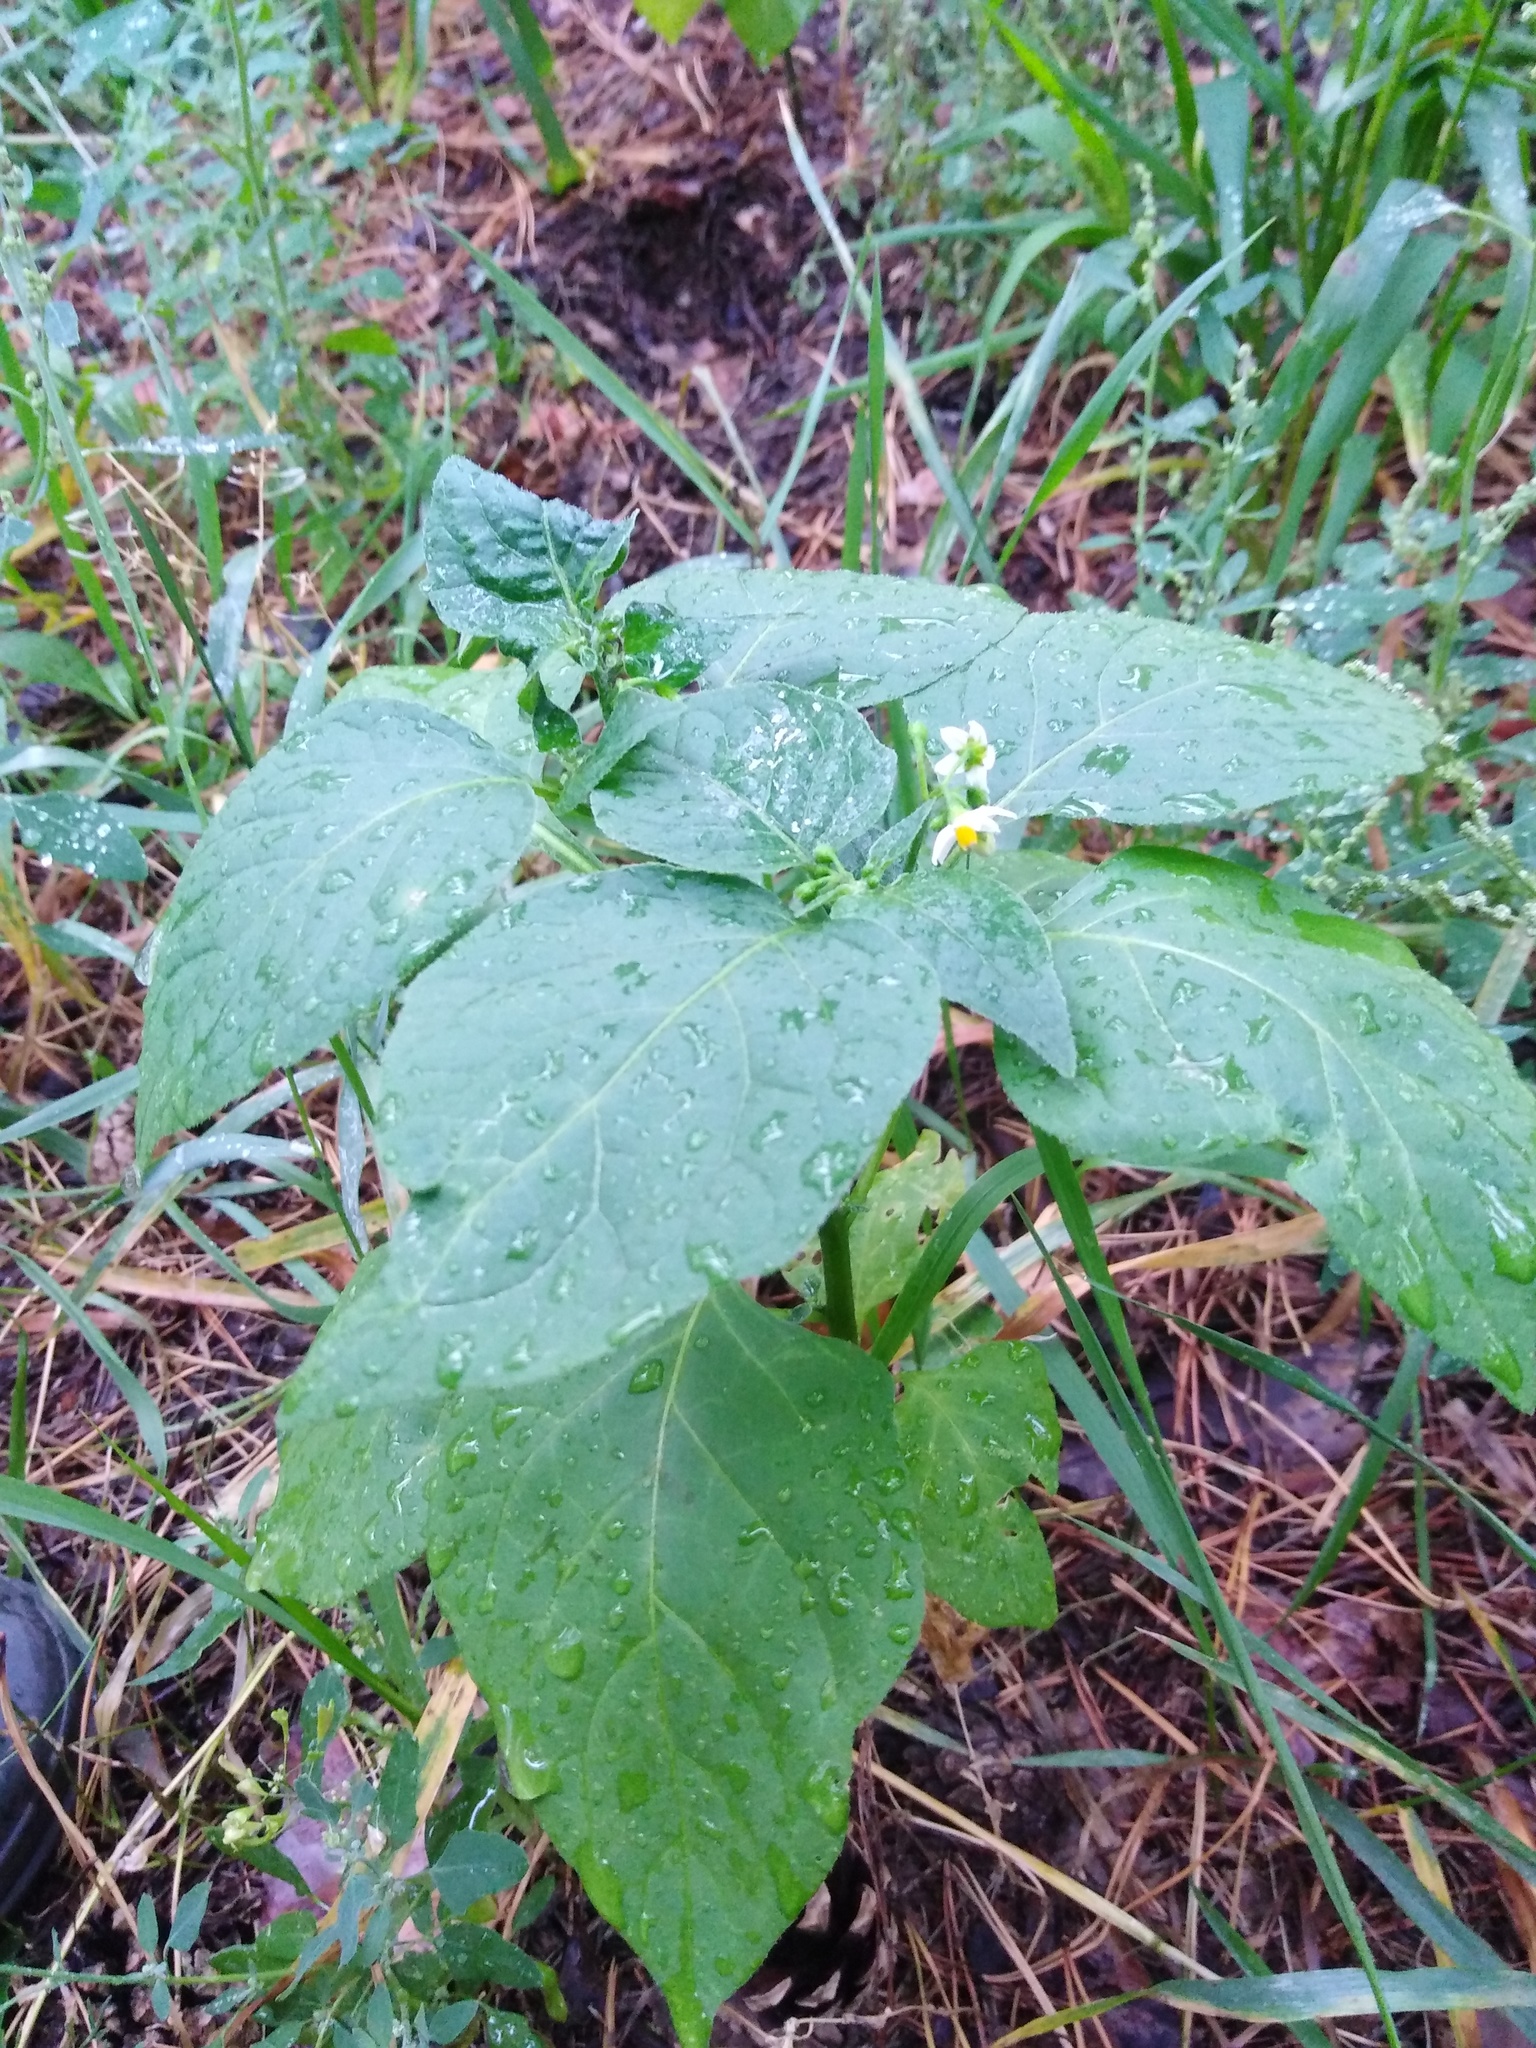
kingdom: Plantae
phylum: Tracheophyta
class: Magnoliopsida
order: Solanales
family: Solanaceae
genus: Solanum
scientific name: Solanum nigrum
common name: Black nightshade
